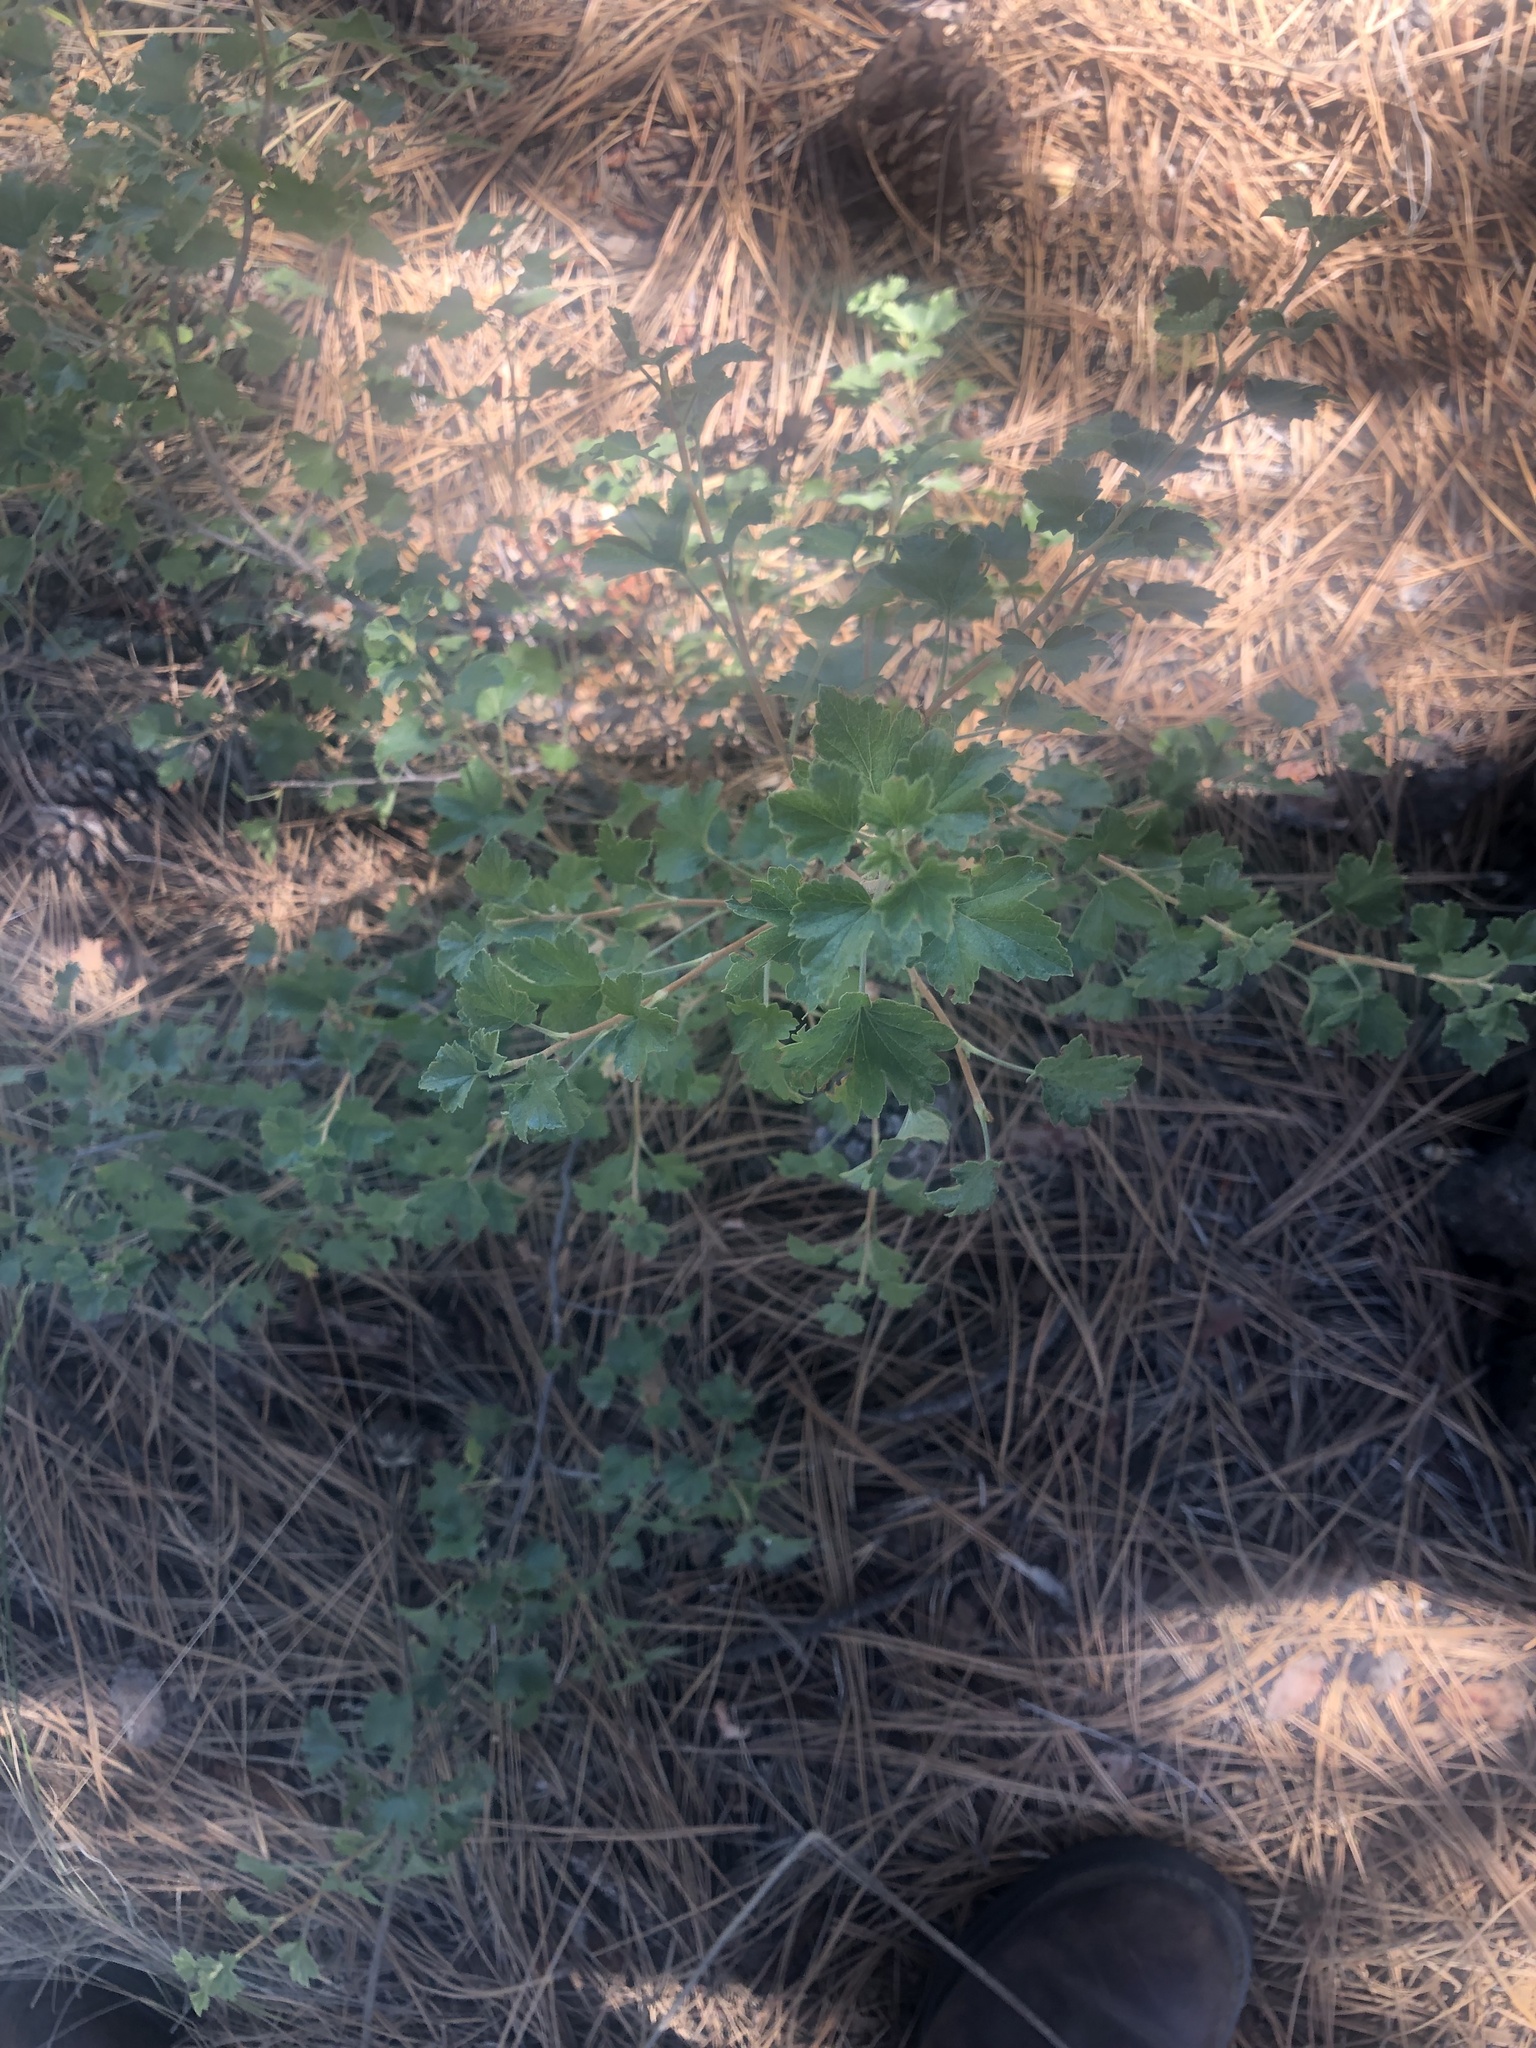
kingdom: Plantae
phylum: Tracheophyta
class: Magnoliopsida
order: Saxifragales
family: Grossulariaceae
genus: Ribes
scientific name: Ribes cereum
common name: Wax currant
